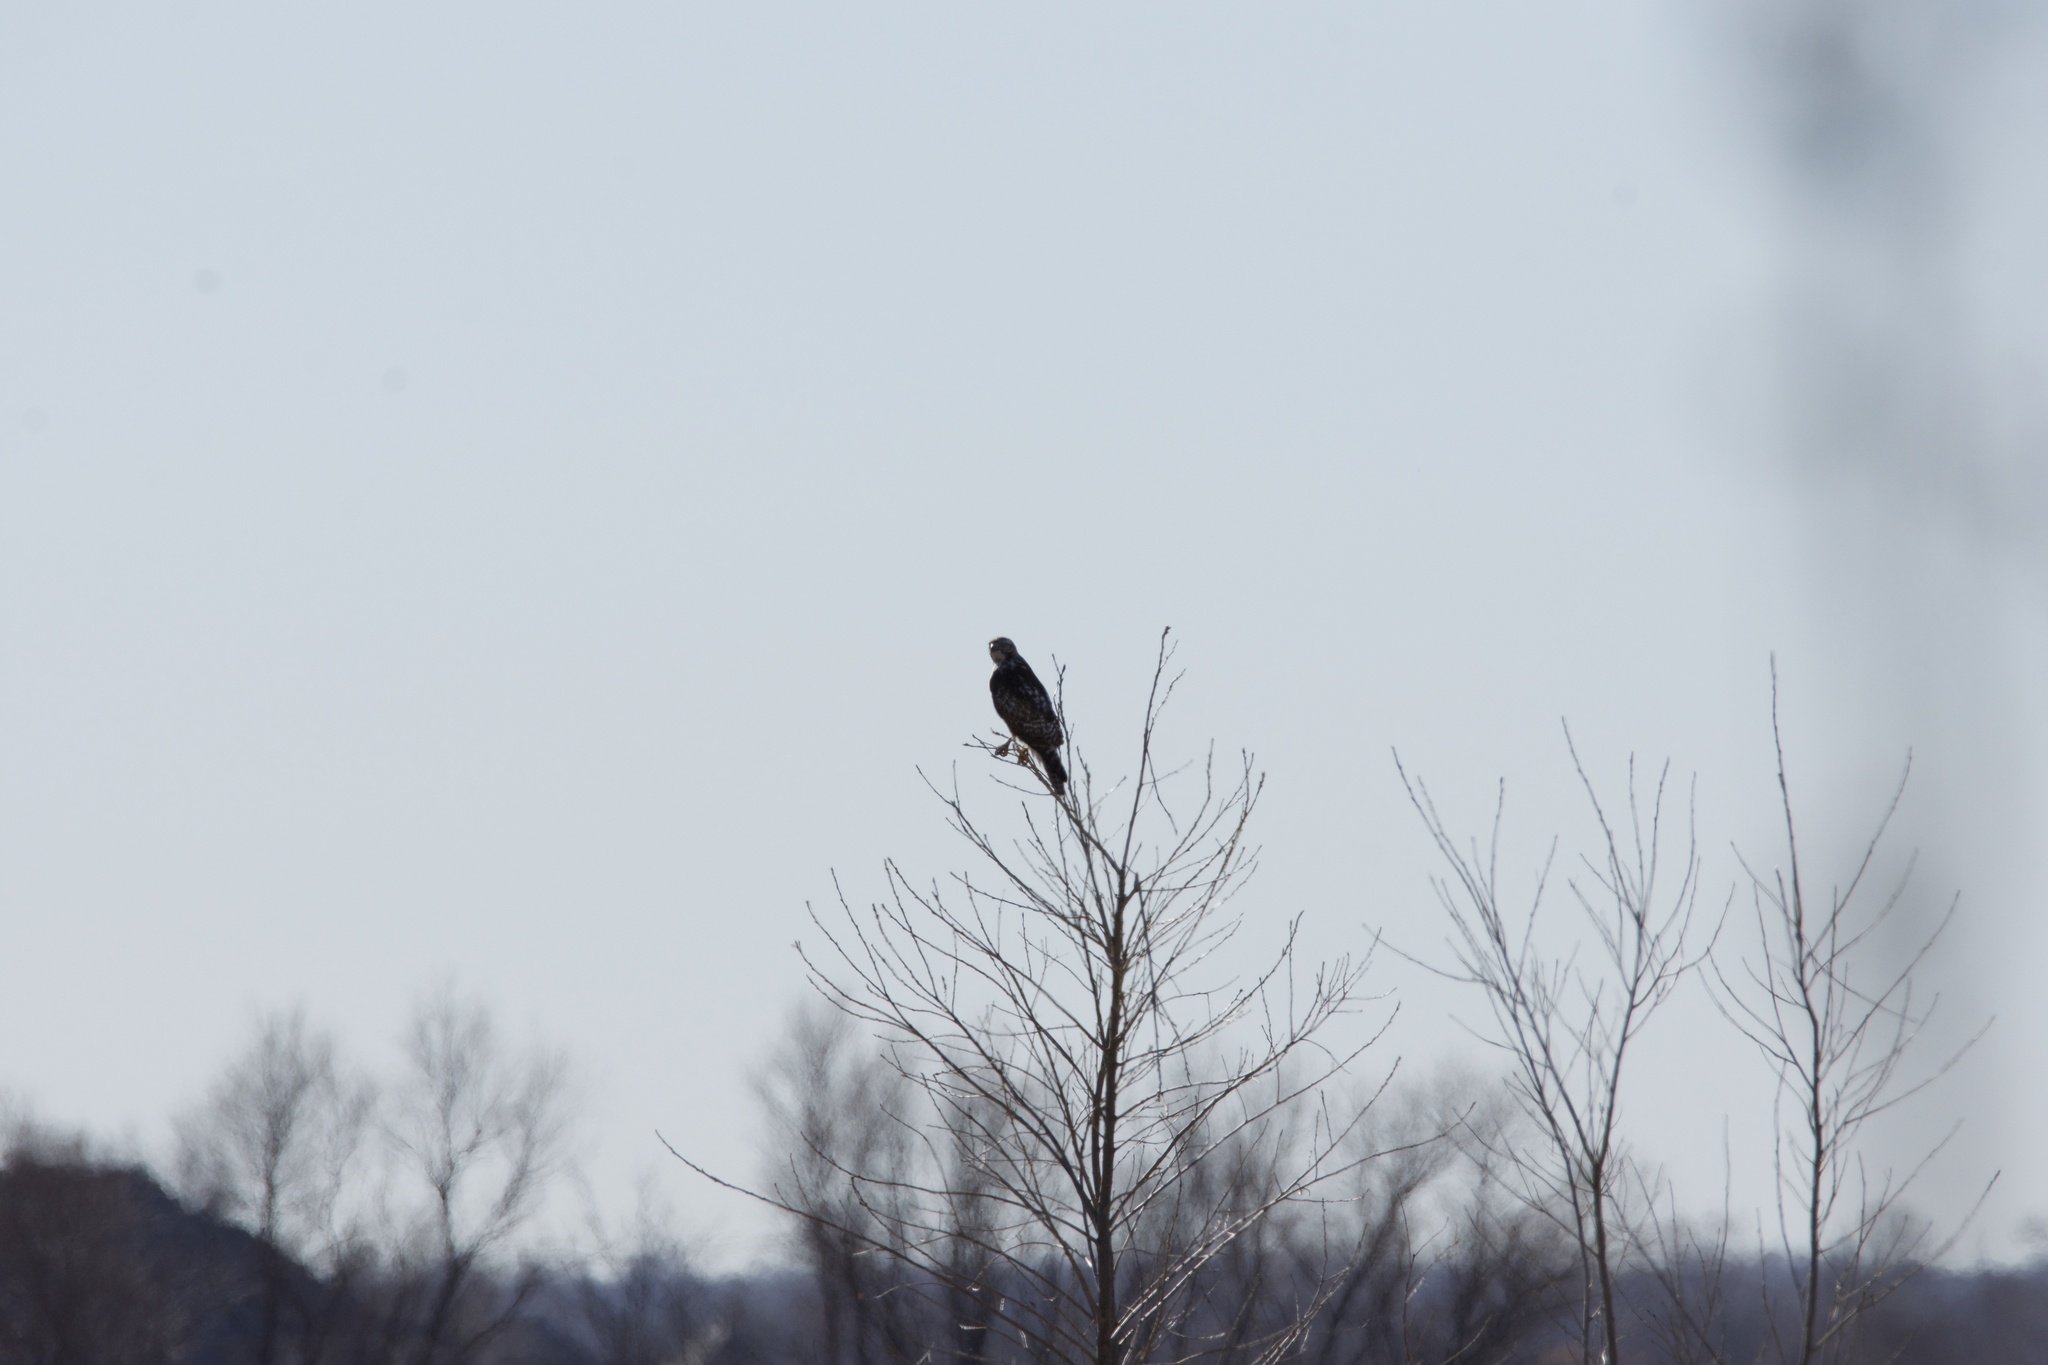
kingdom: Animalia
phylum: Chordata
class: Aves
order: Accipitriformes
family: Accipitridae
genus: Buteo
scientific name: Buteo jamaicensis
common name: Red-tailed hawk
